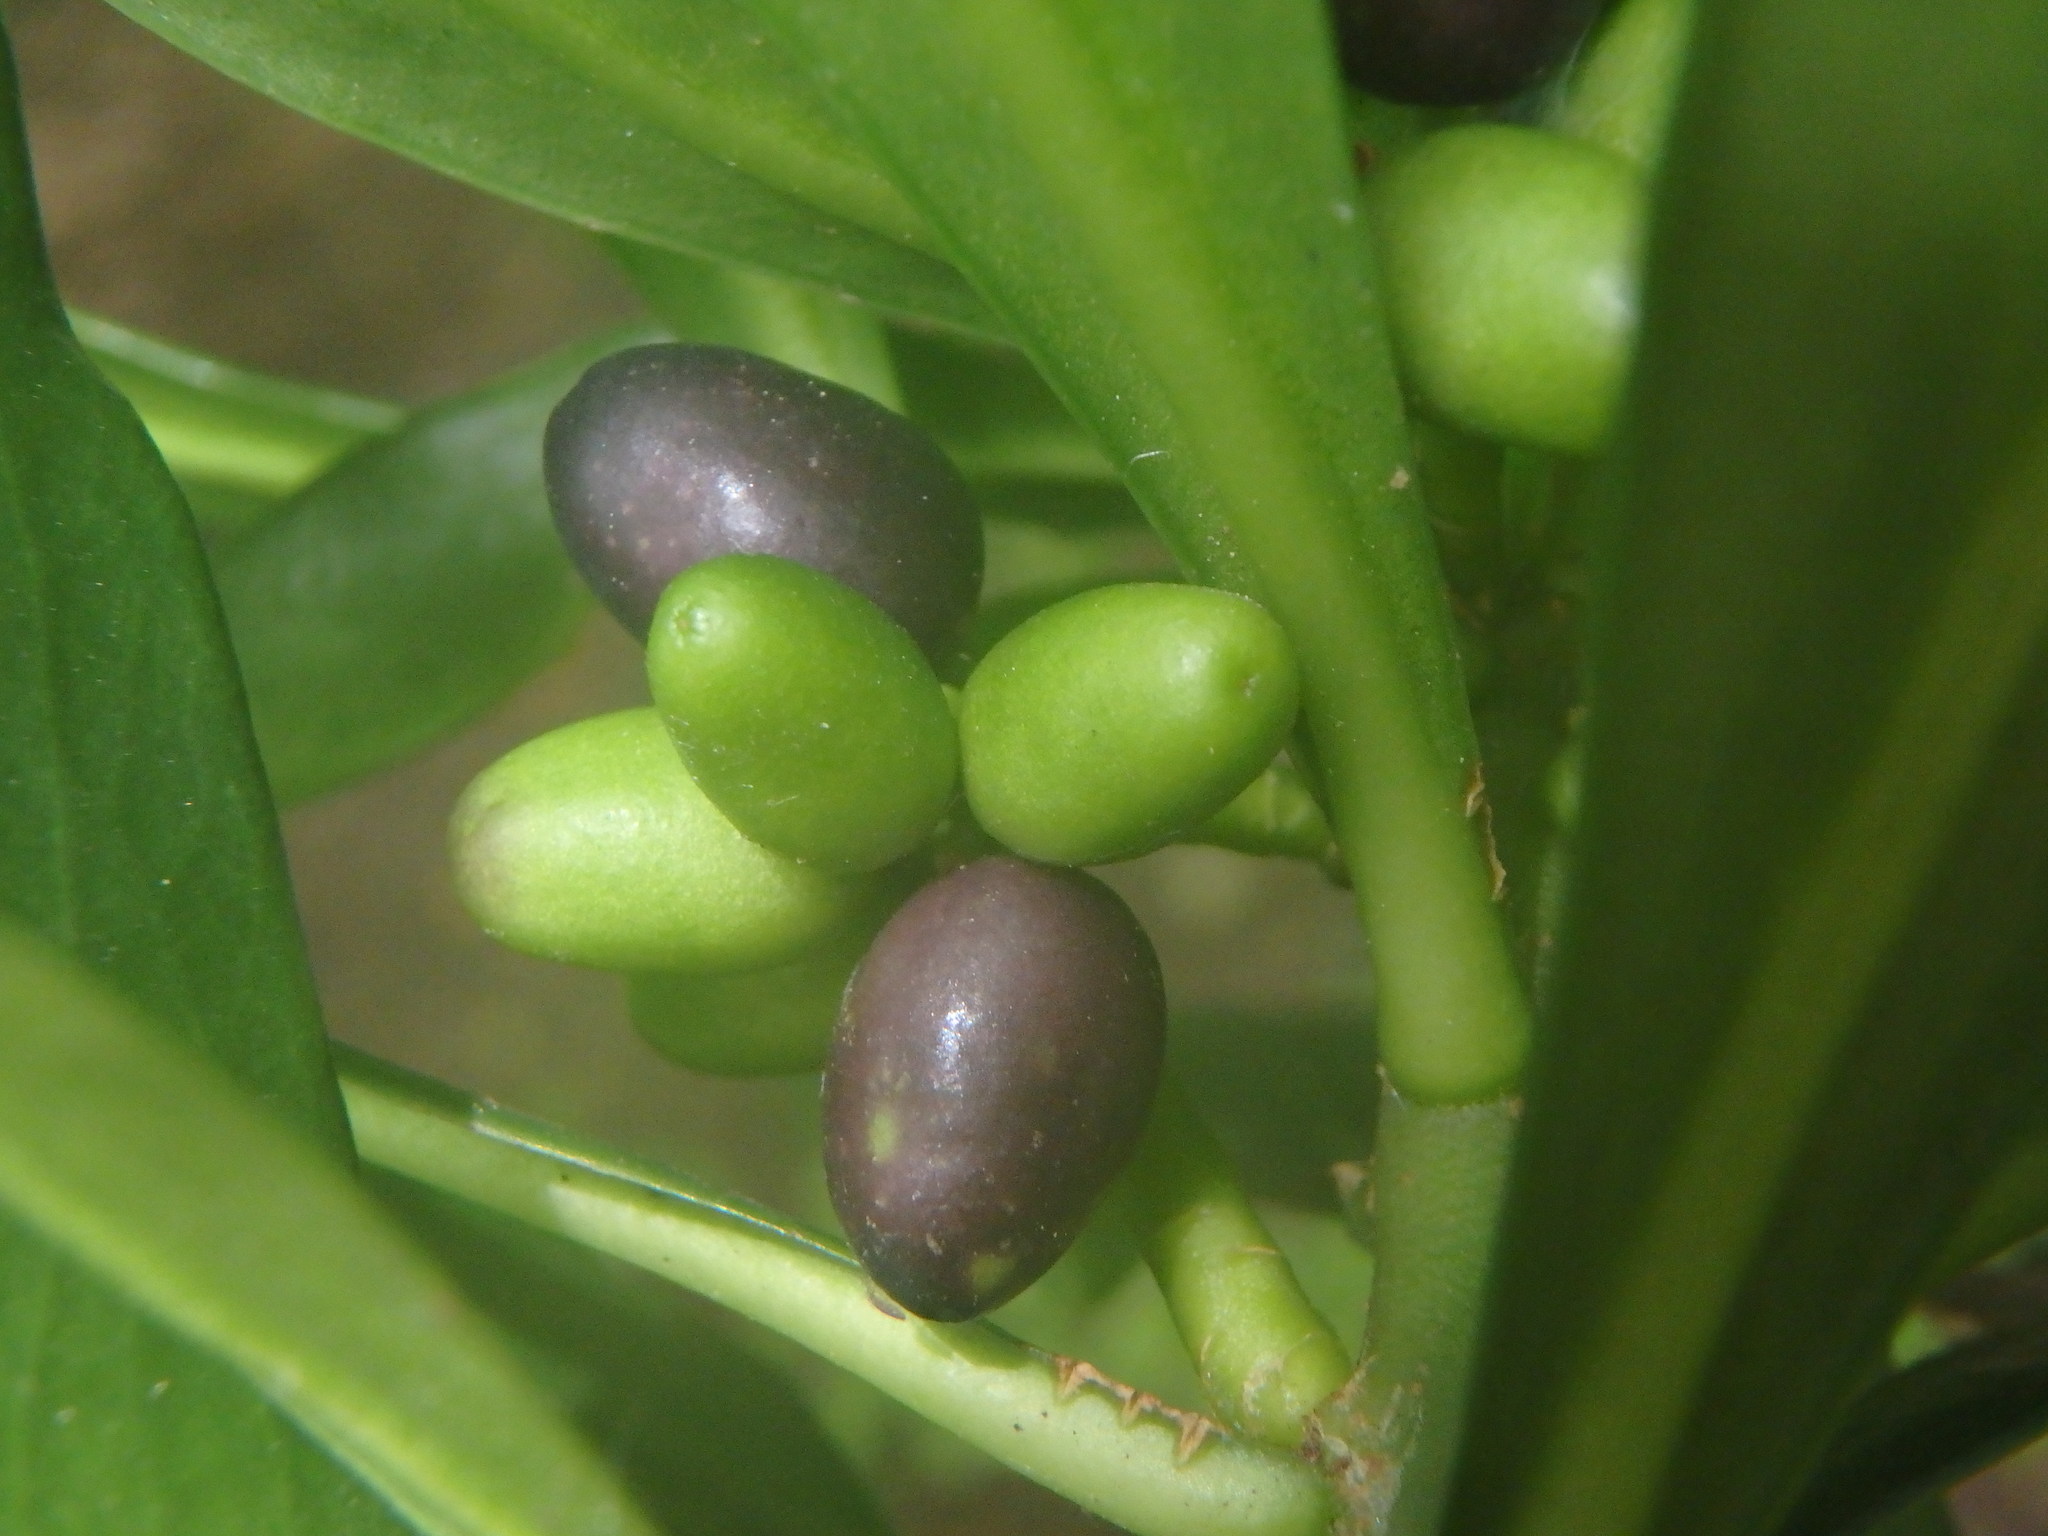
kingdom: Plantae
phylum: Tracheophyta
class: Magnoliopsida
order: Malvales
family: Thymelaeaceae
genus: Daphne
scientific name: Daphne laureola
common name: Spurge-laurel
